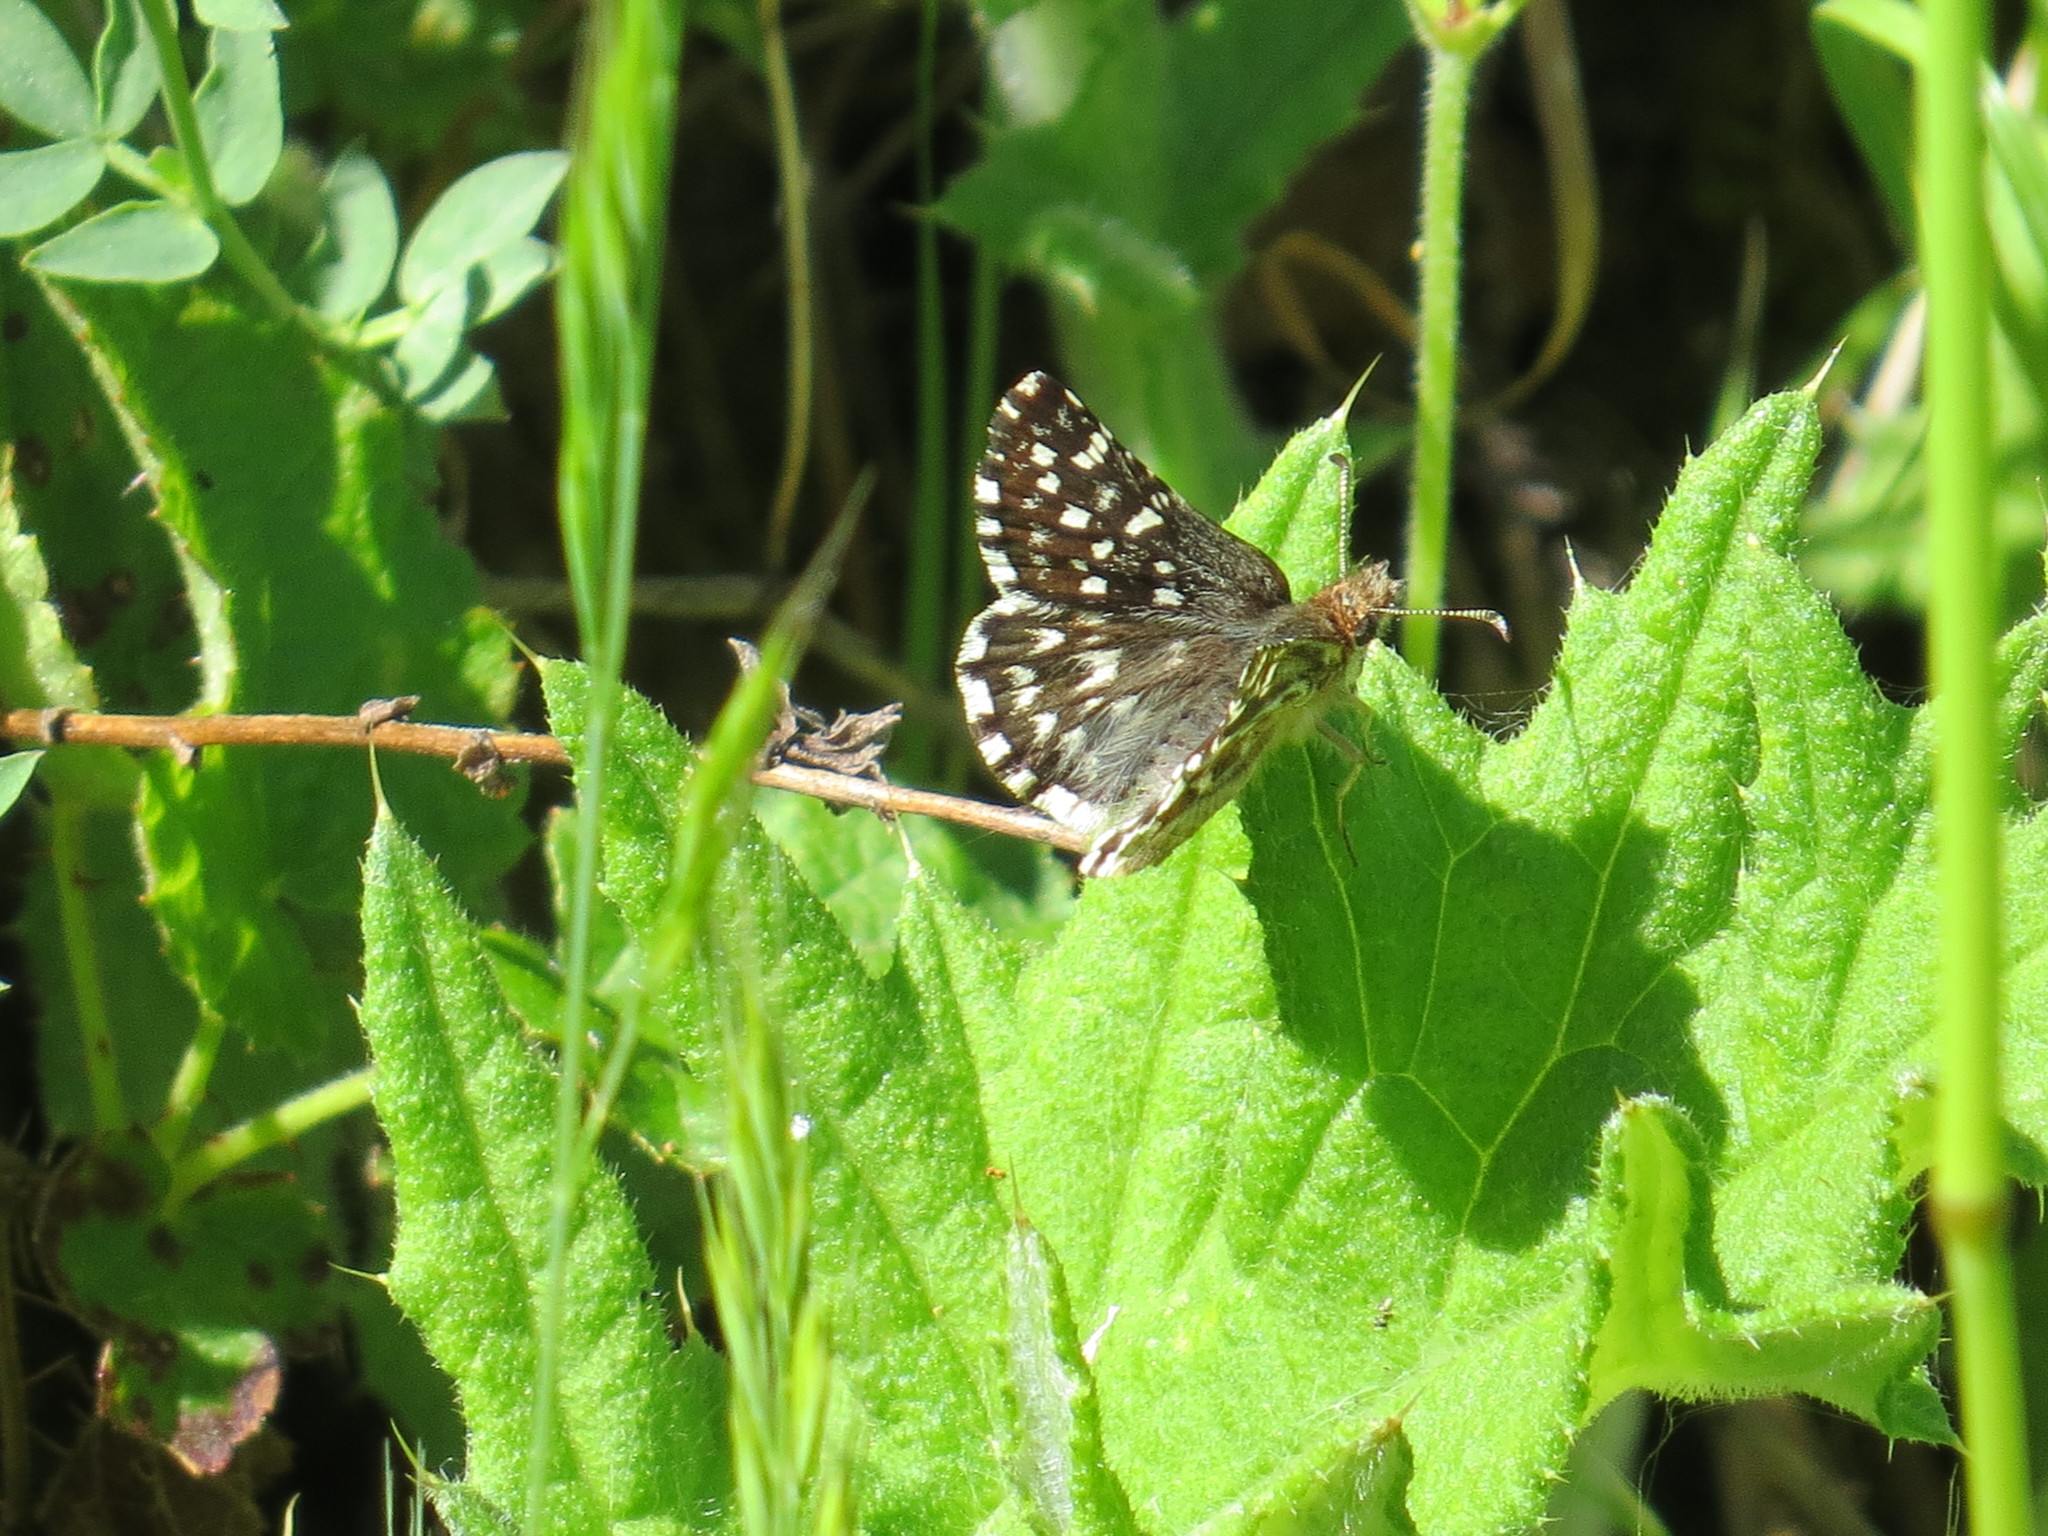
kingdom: Animalia
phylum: Arthropoda
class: Insecta
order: Lepidoptera
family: Hesperiidae
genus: Pyrgus
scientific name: Pyrgus ruralis
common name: Two-banded checkered-skipper
